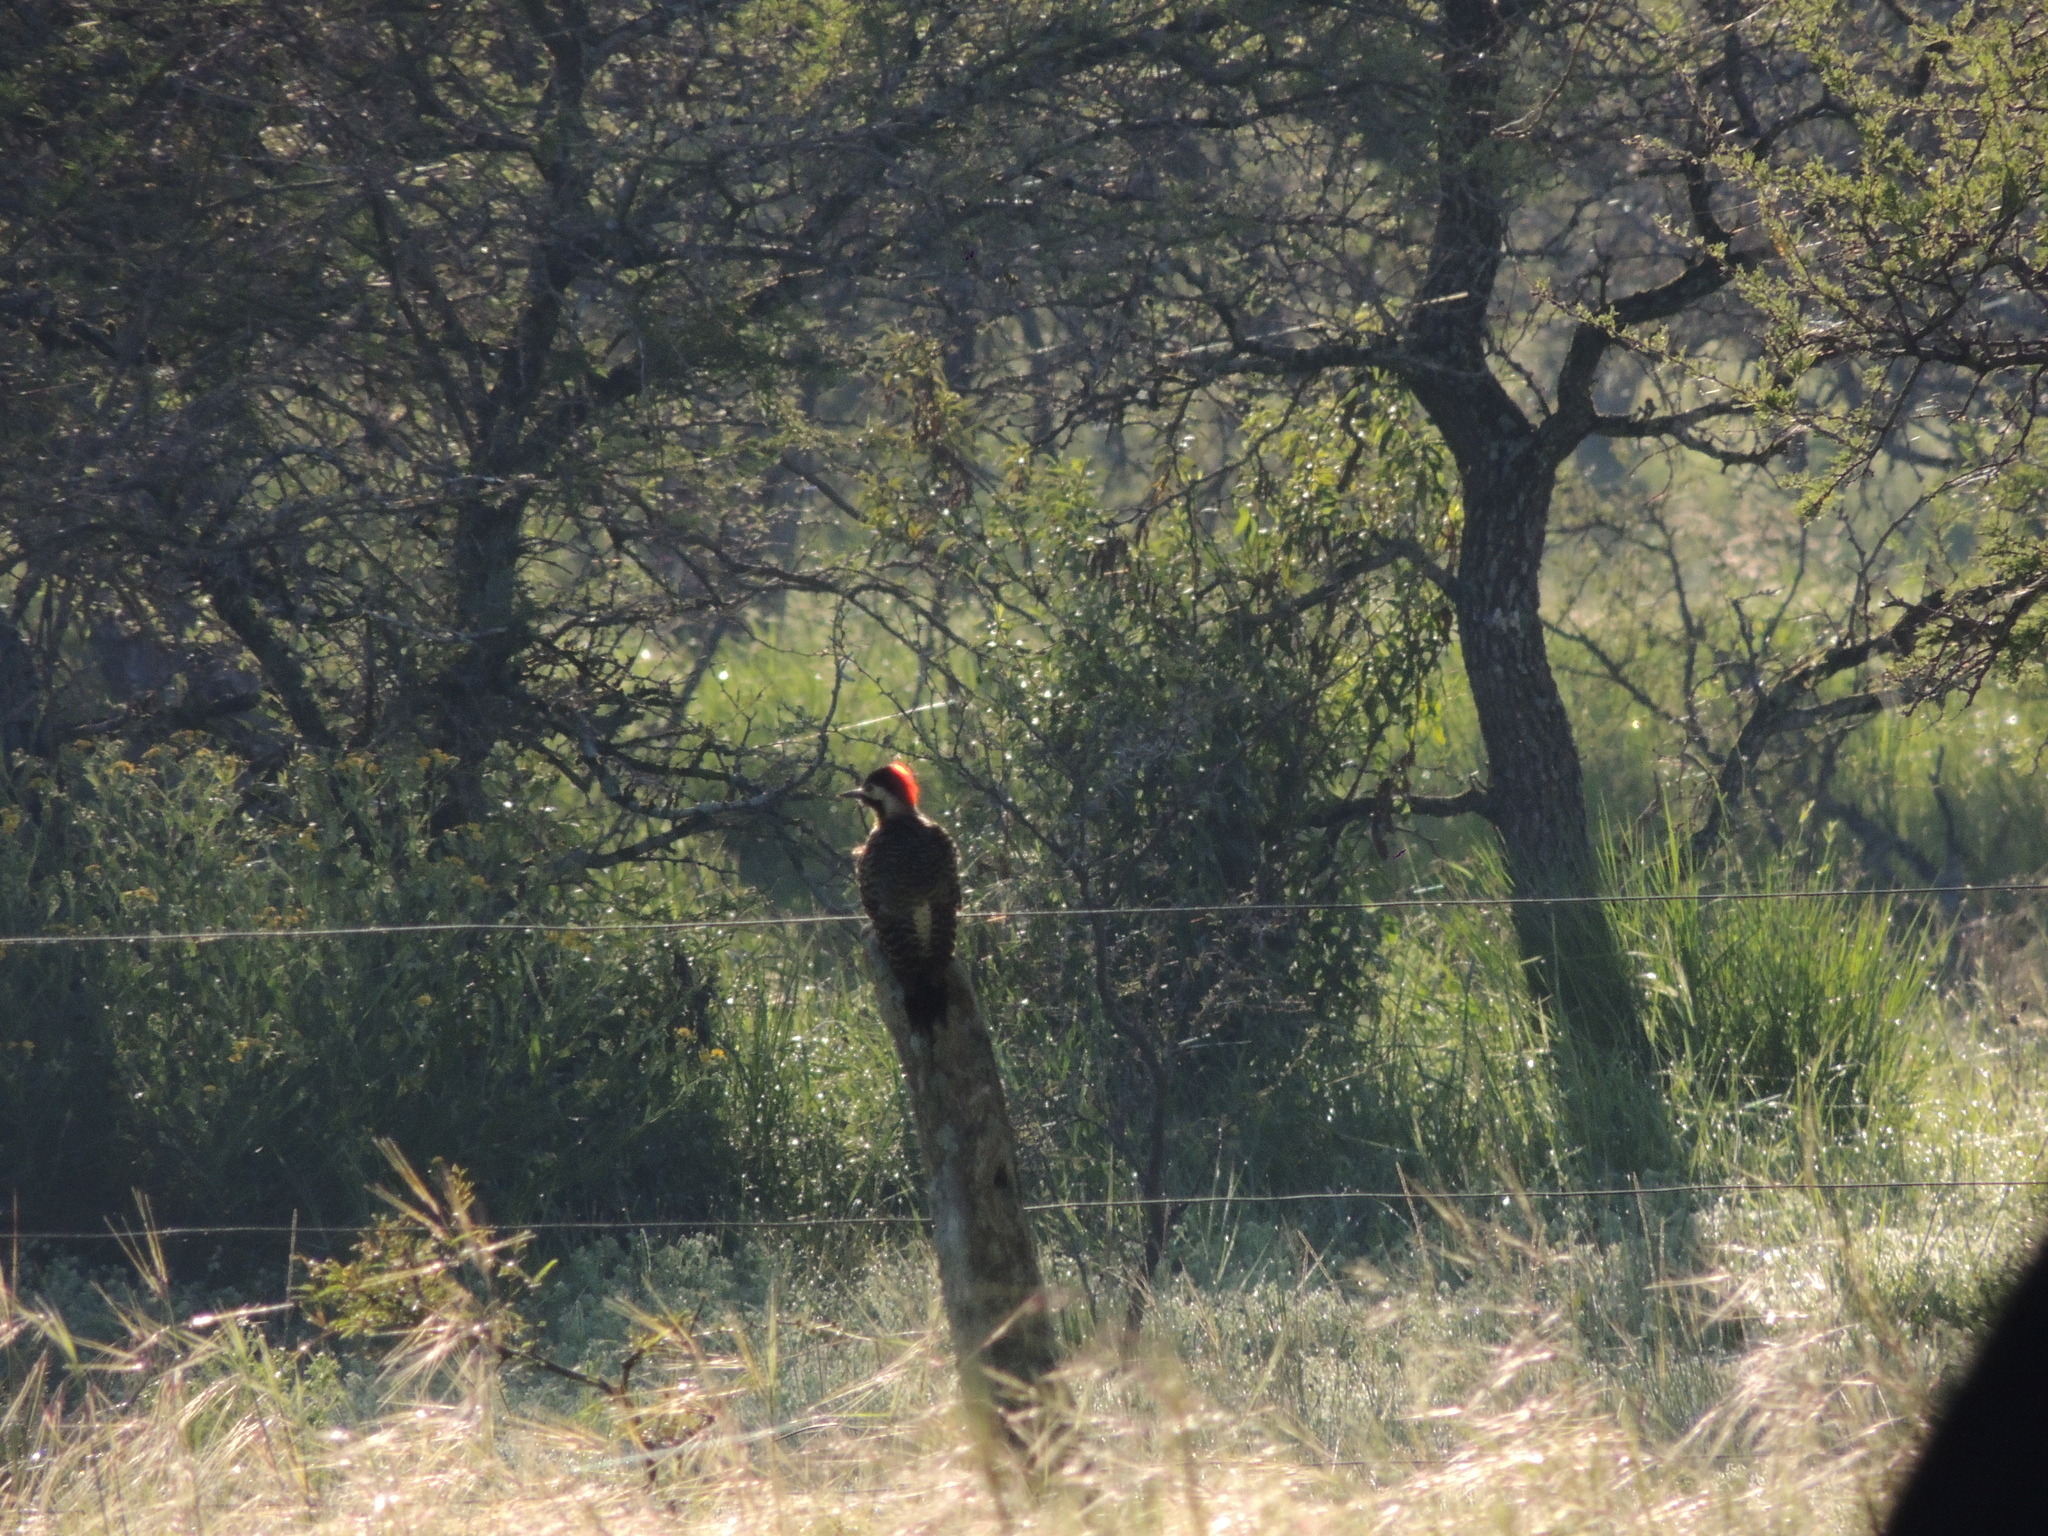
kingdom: Animalia
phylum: Chordata
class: Aves
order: Piciformes
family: Picidae
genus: Colaptes
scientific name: Colaptes melanochloros
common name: Green-barred woodpecker
